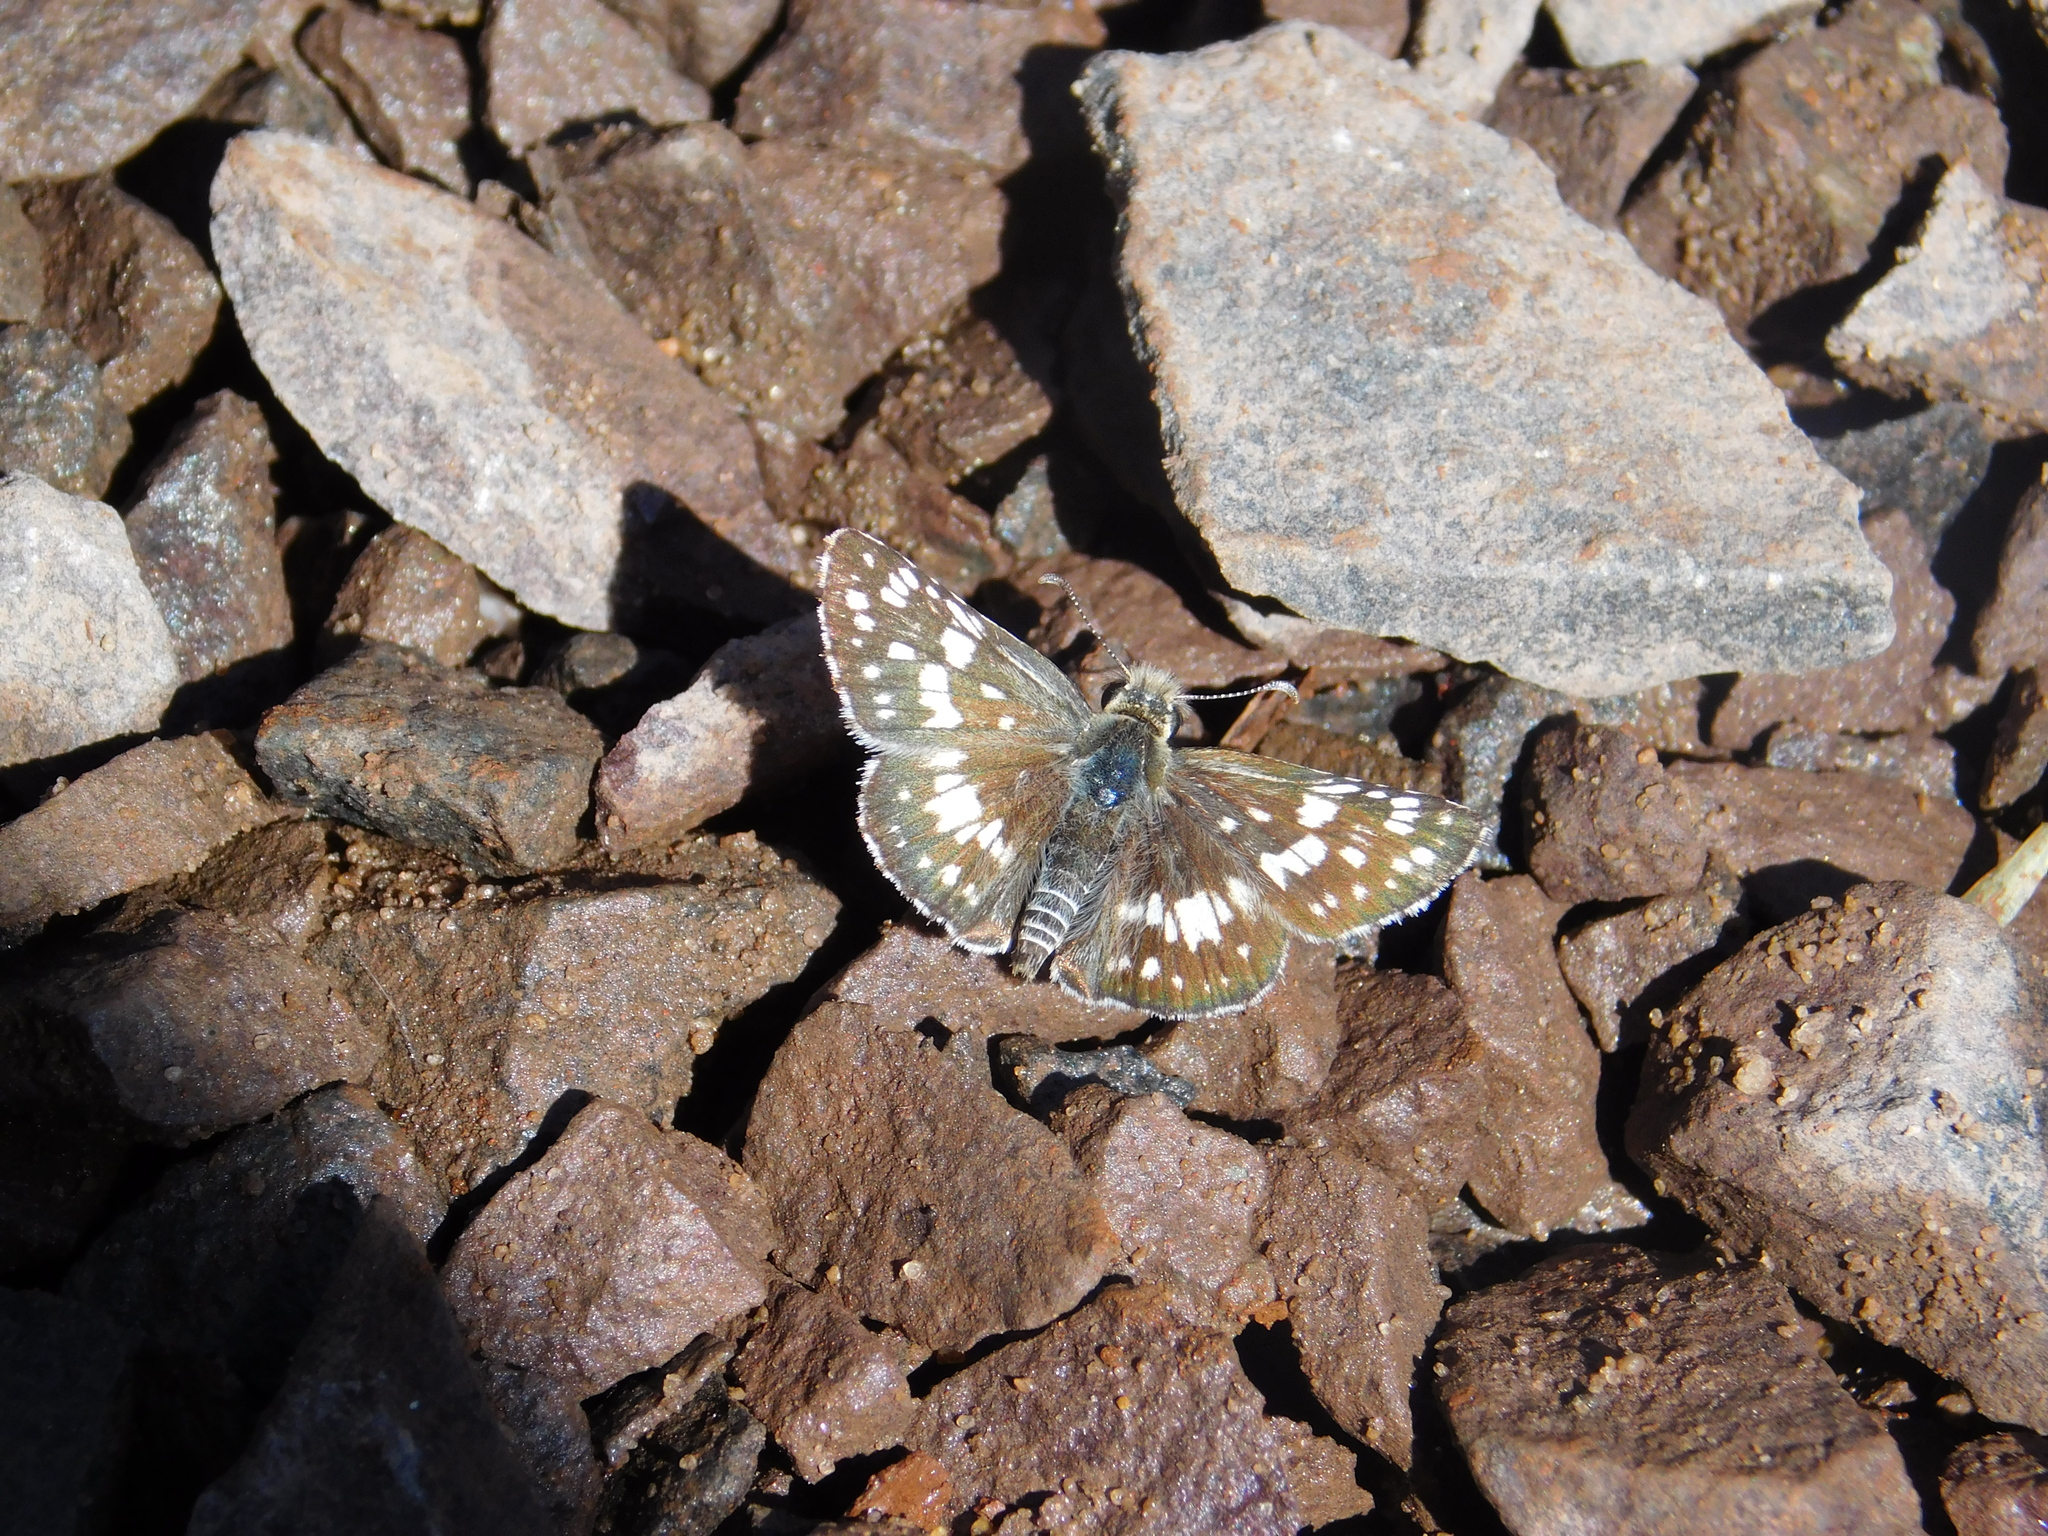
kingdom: Animalia
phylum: Arthropoda
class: Insecta
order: Lepidoptera
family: Hesperiidae
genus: Burnsius
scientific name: Burnsius orcynoides
